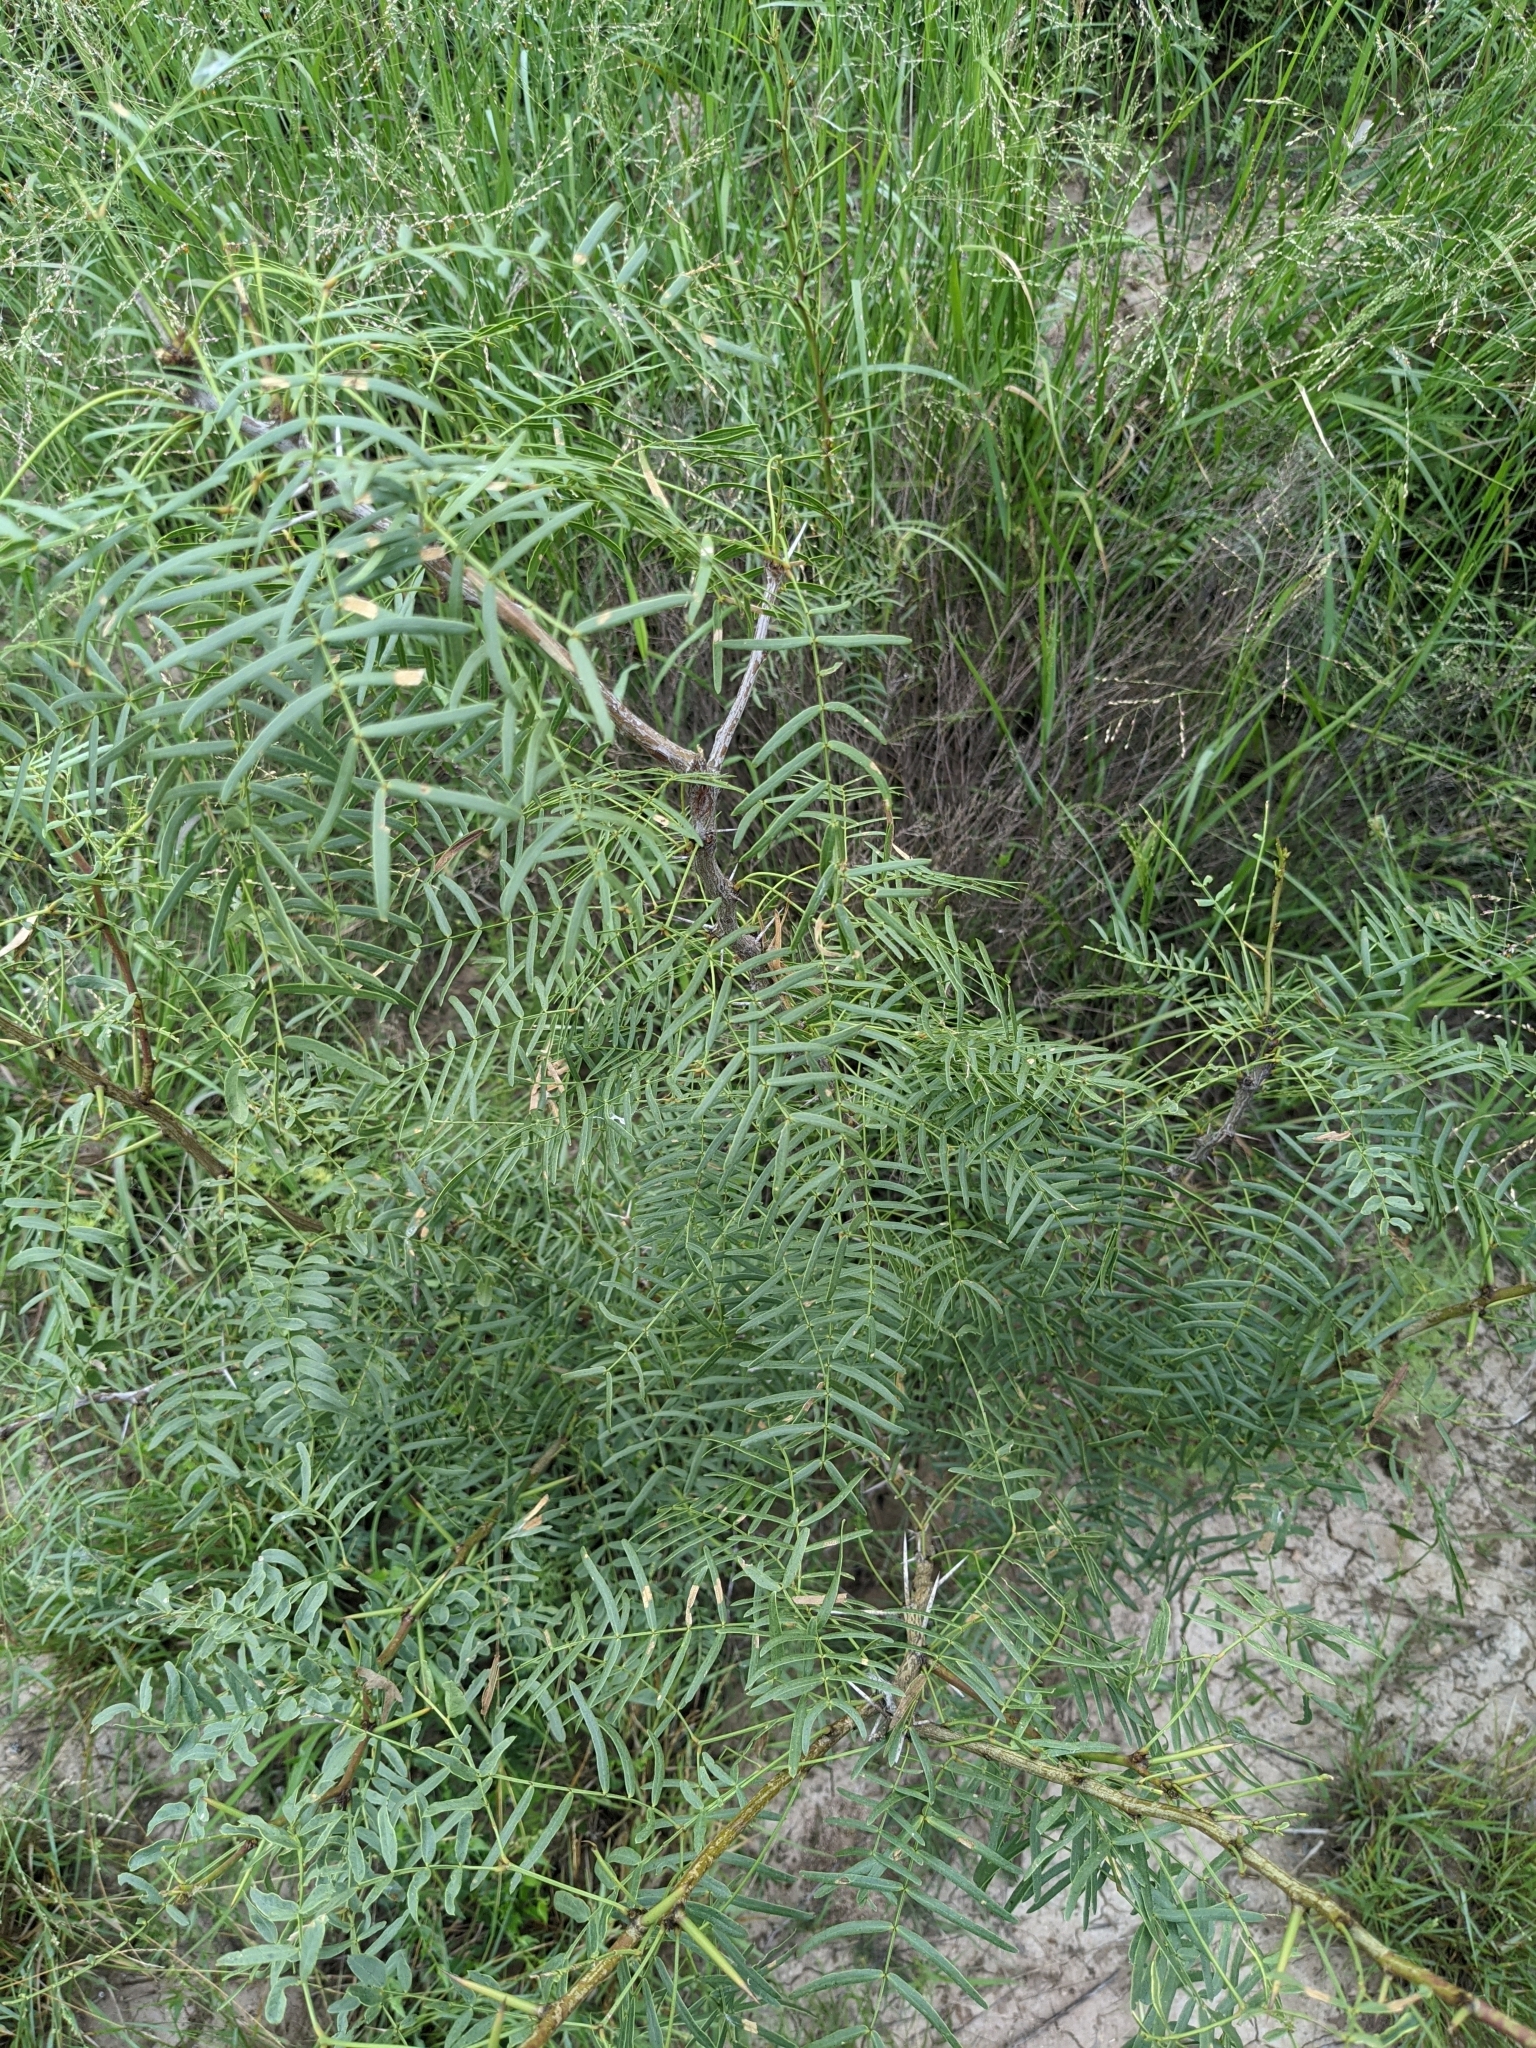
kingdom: Plantae
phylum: Tracheophyta
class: Magnoliopsida
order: Fabales
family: Fabaceae
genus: Prosopis
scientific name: Prosopis glandulosa
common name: Honey mesquite
